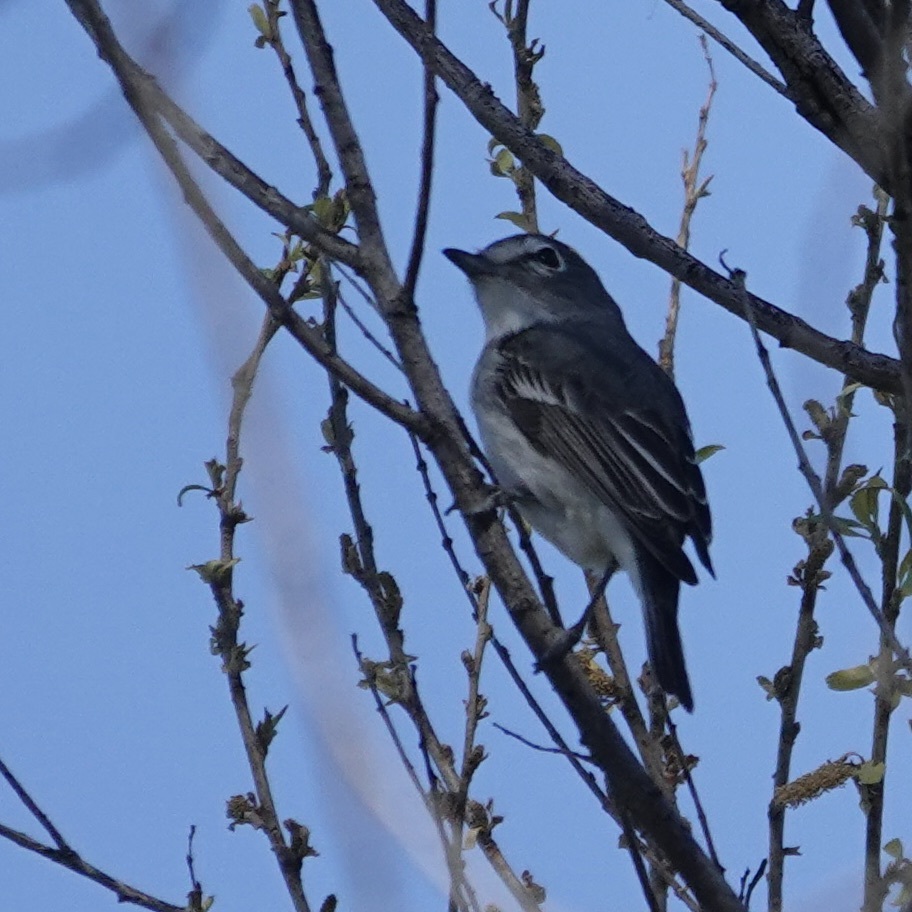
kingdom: Animalia
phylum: Chordata
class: Aves
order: Passeriformes
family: Vireonidae
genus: Vireo
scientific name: Vireo plumbeus
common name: Plumbeous vireo
